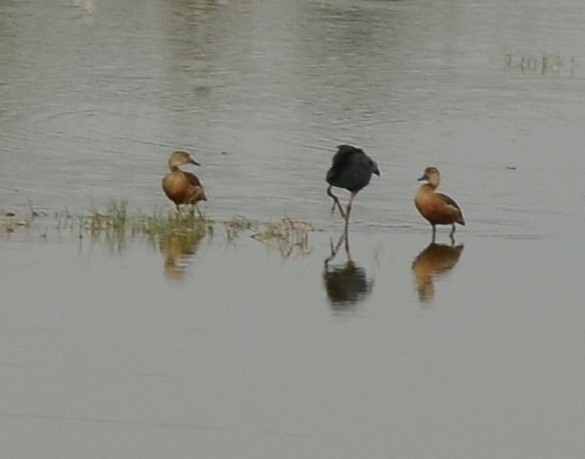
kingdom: Animalia
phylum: Chordata
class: Aves
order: Anseriformes
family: Anatidae
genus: Dendrocygna
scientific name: Dendrocygna javanica
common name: Lesser whistling-duck
